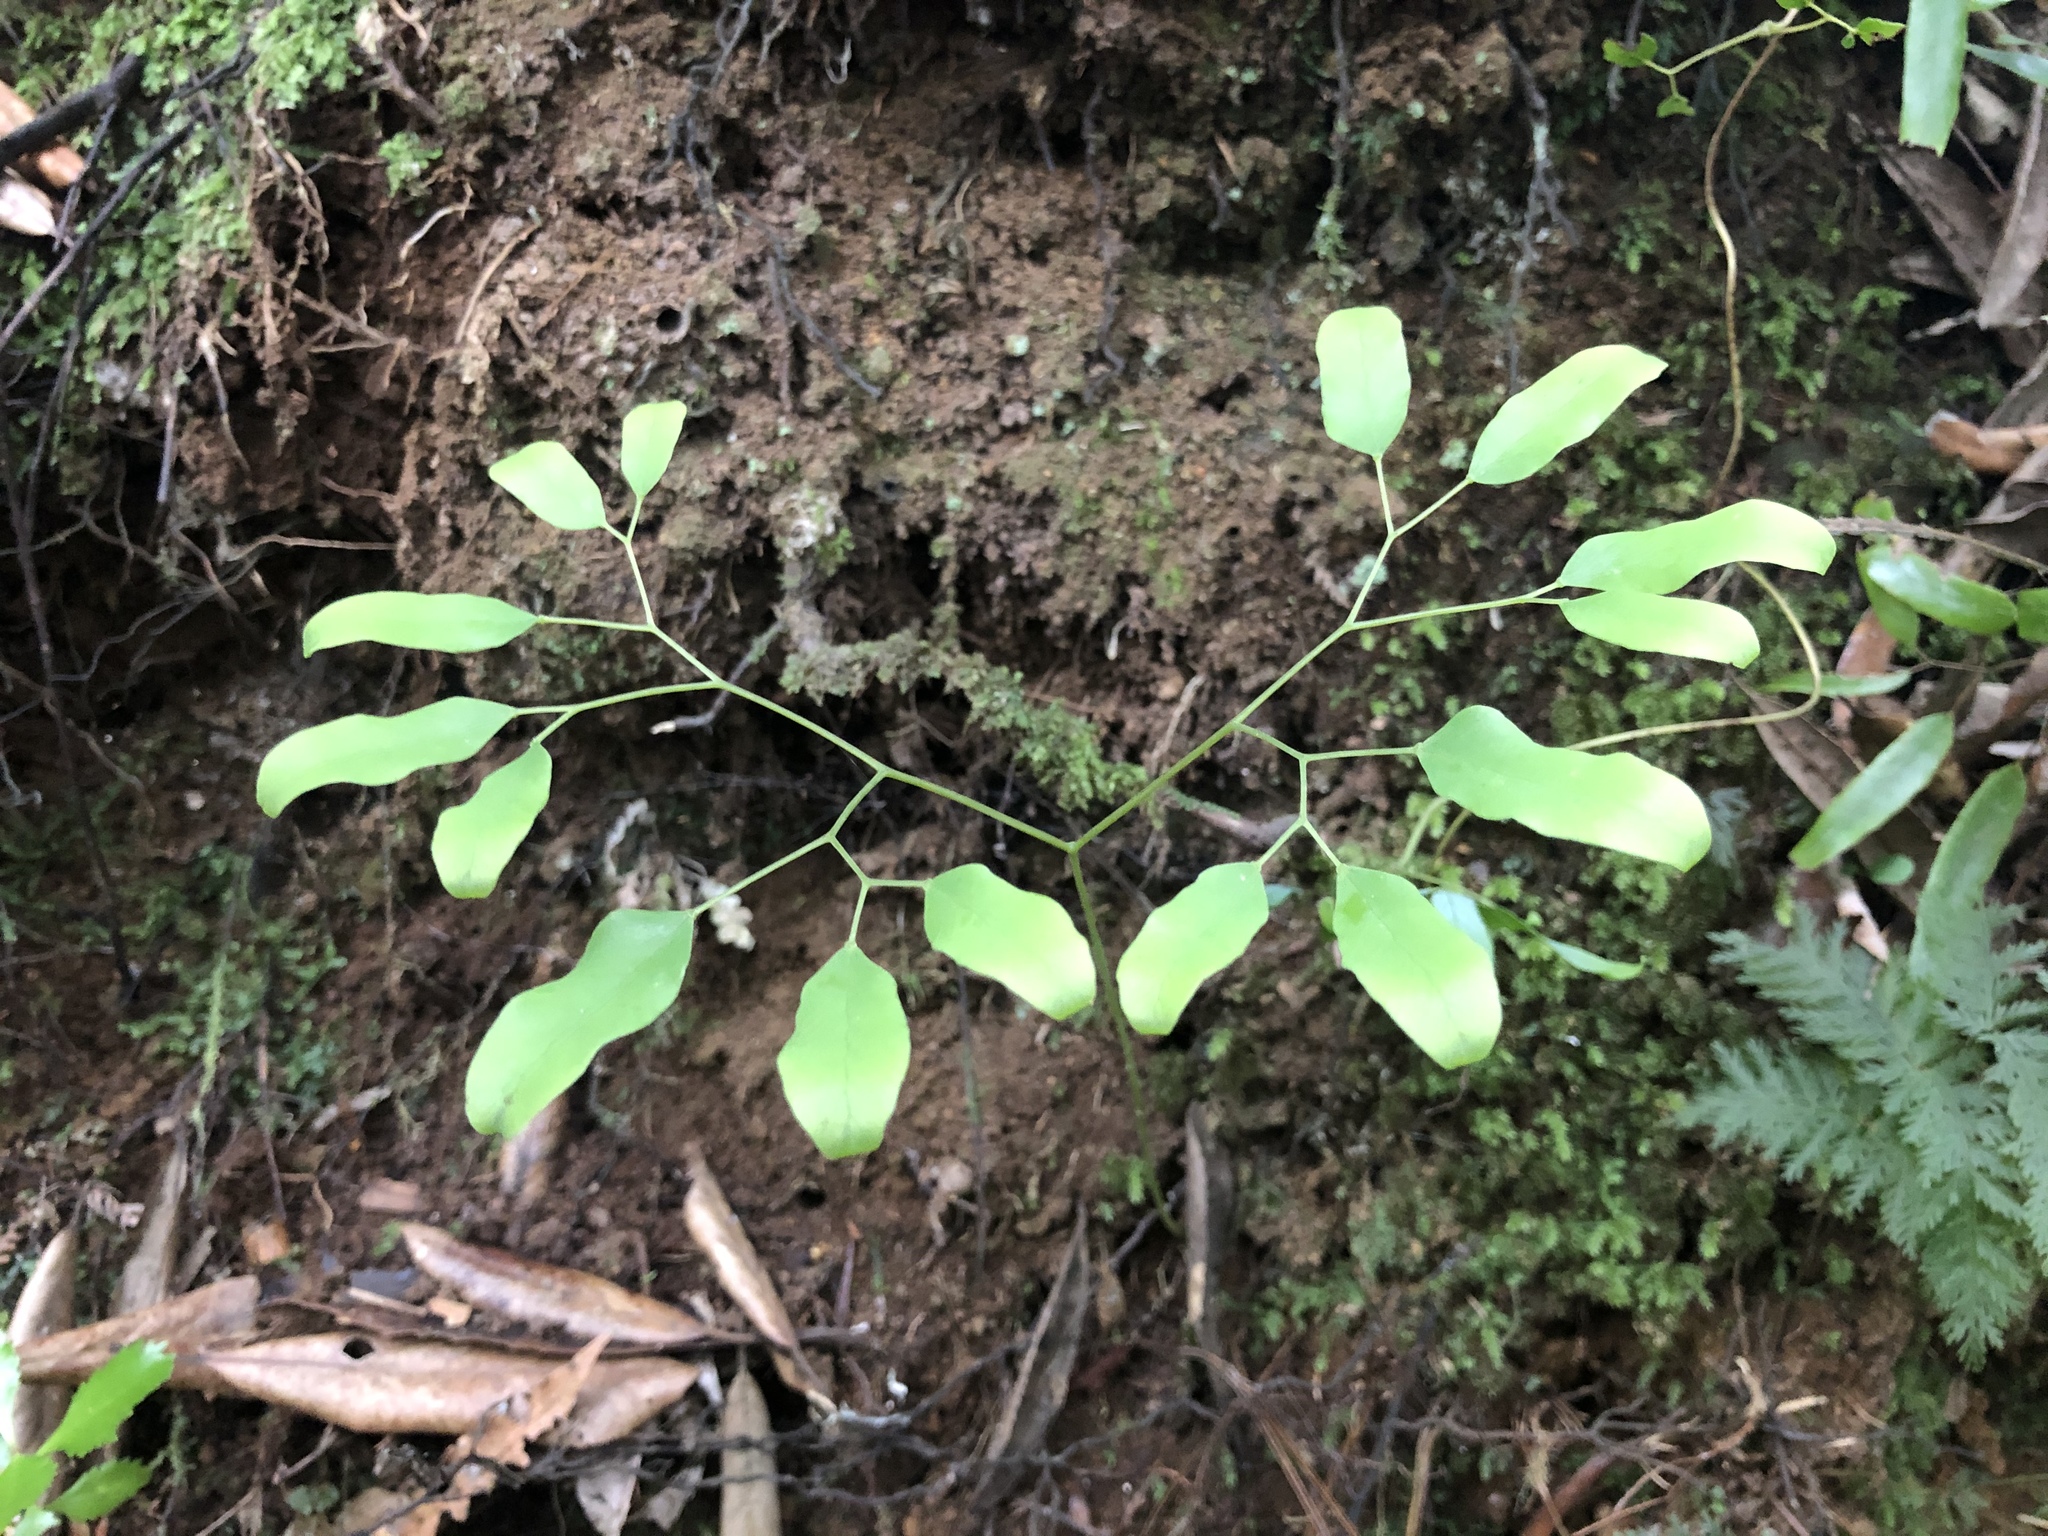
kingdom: Plantae
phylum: Tracheophyta
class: Polypodiopsida
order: Schizaeales
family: Lygodiaceae
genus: Lygodium
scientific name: Lygodium articulatum
